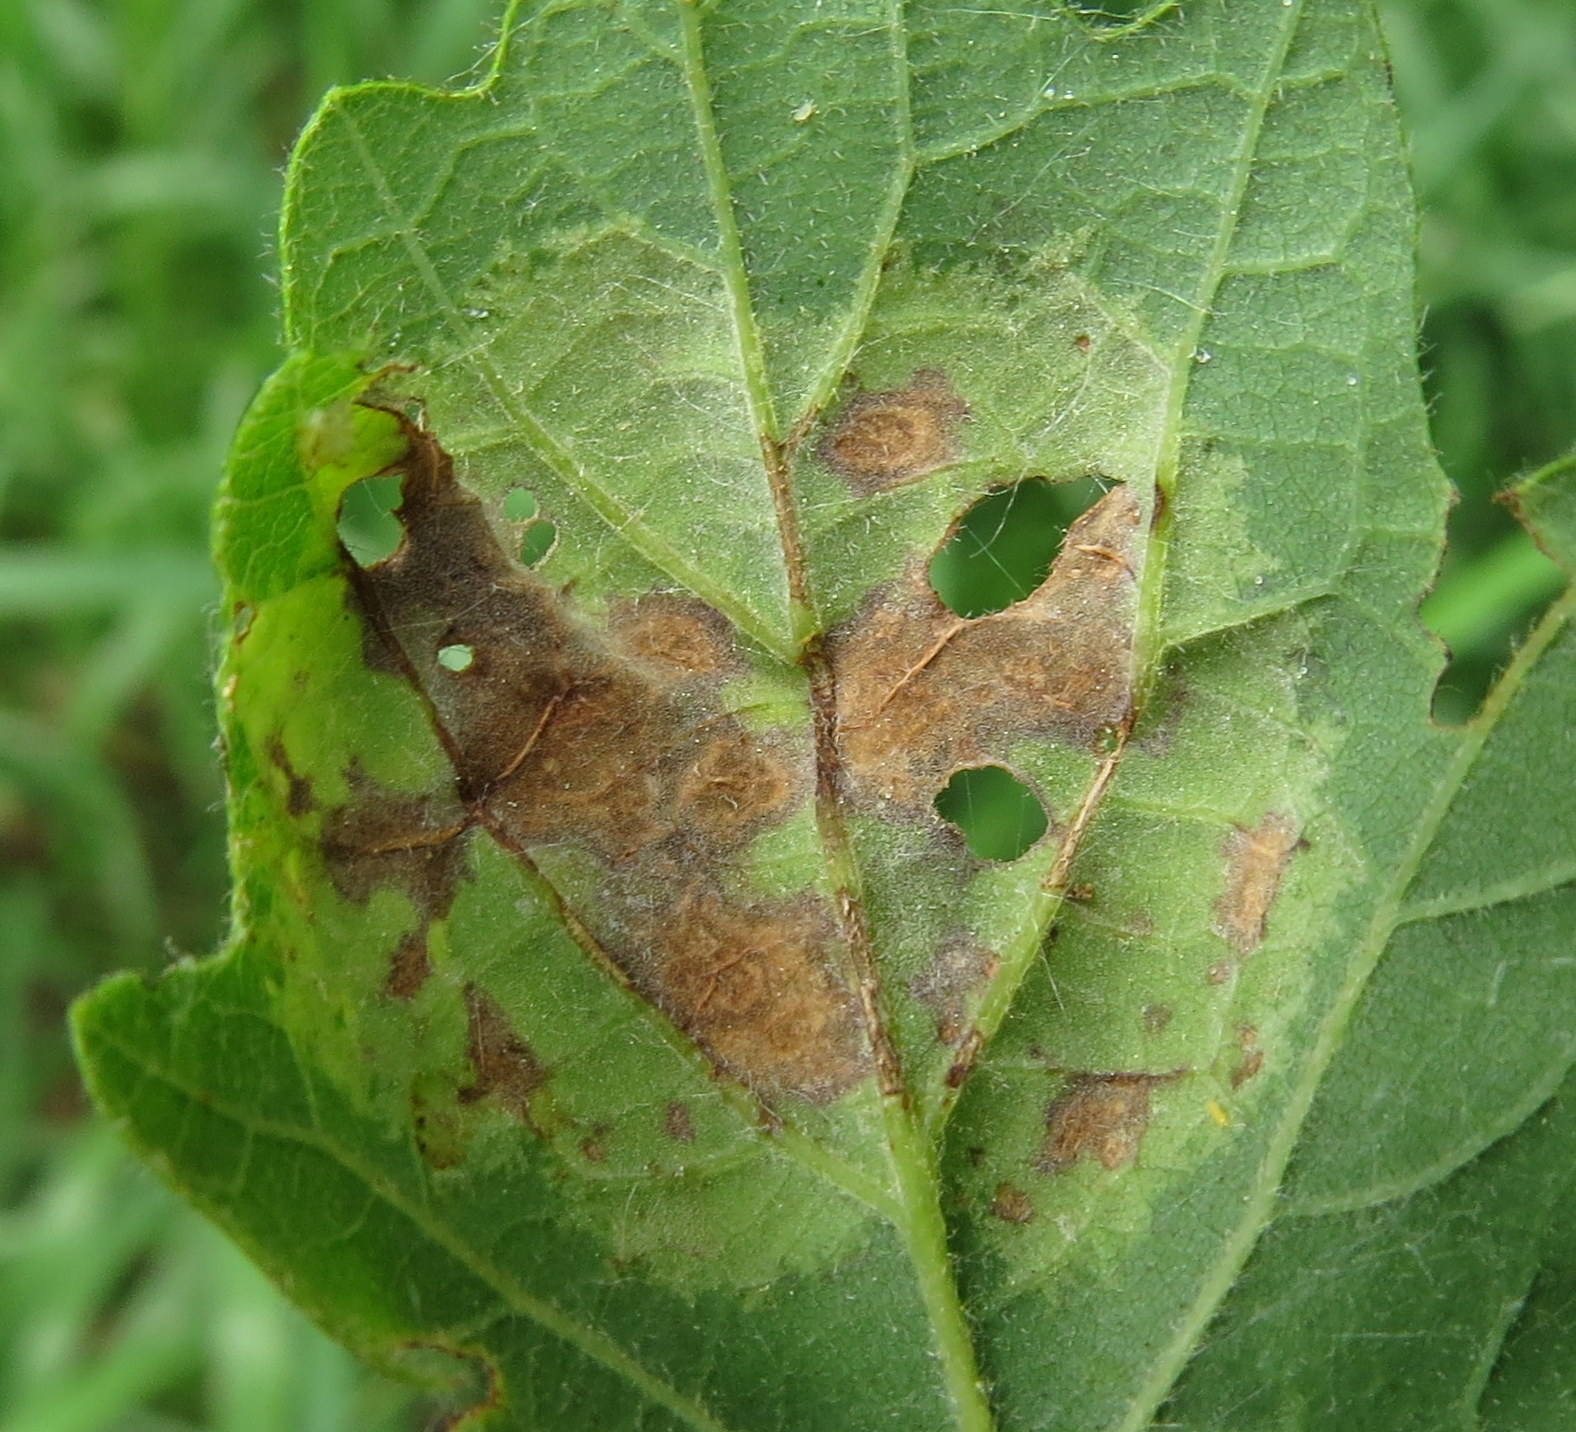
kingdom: Fungi
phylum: Ascomycota
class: Taphrinomycetes
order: Taphrinales
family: Taphrinaceae
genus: Taphrina
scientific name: Taphrina caerulescens
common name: Oak leaf blister
